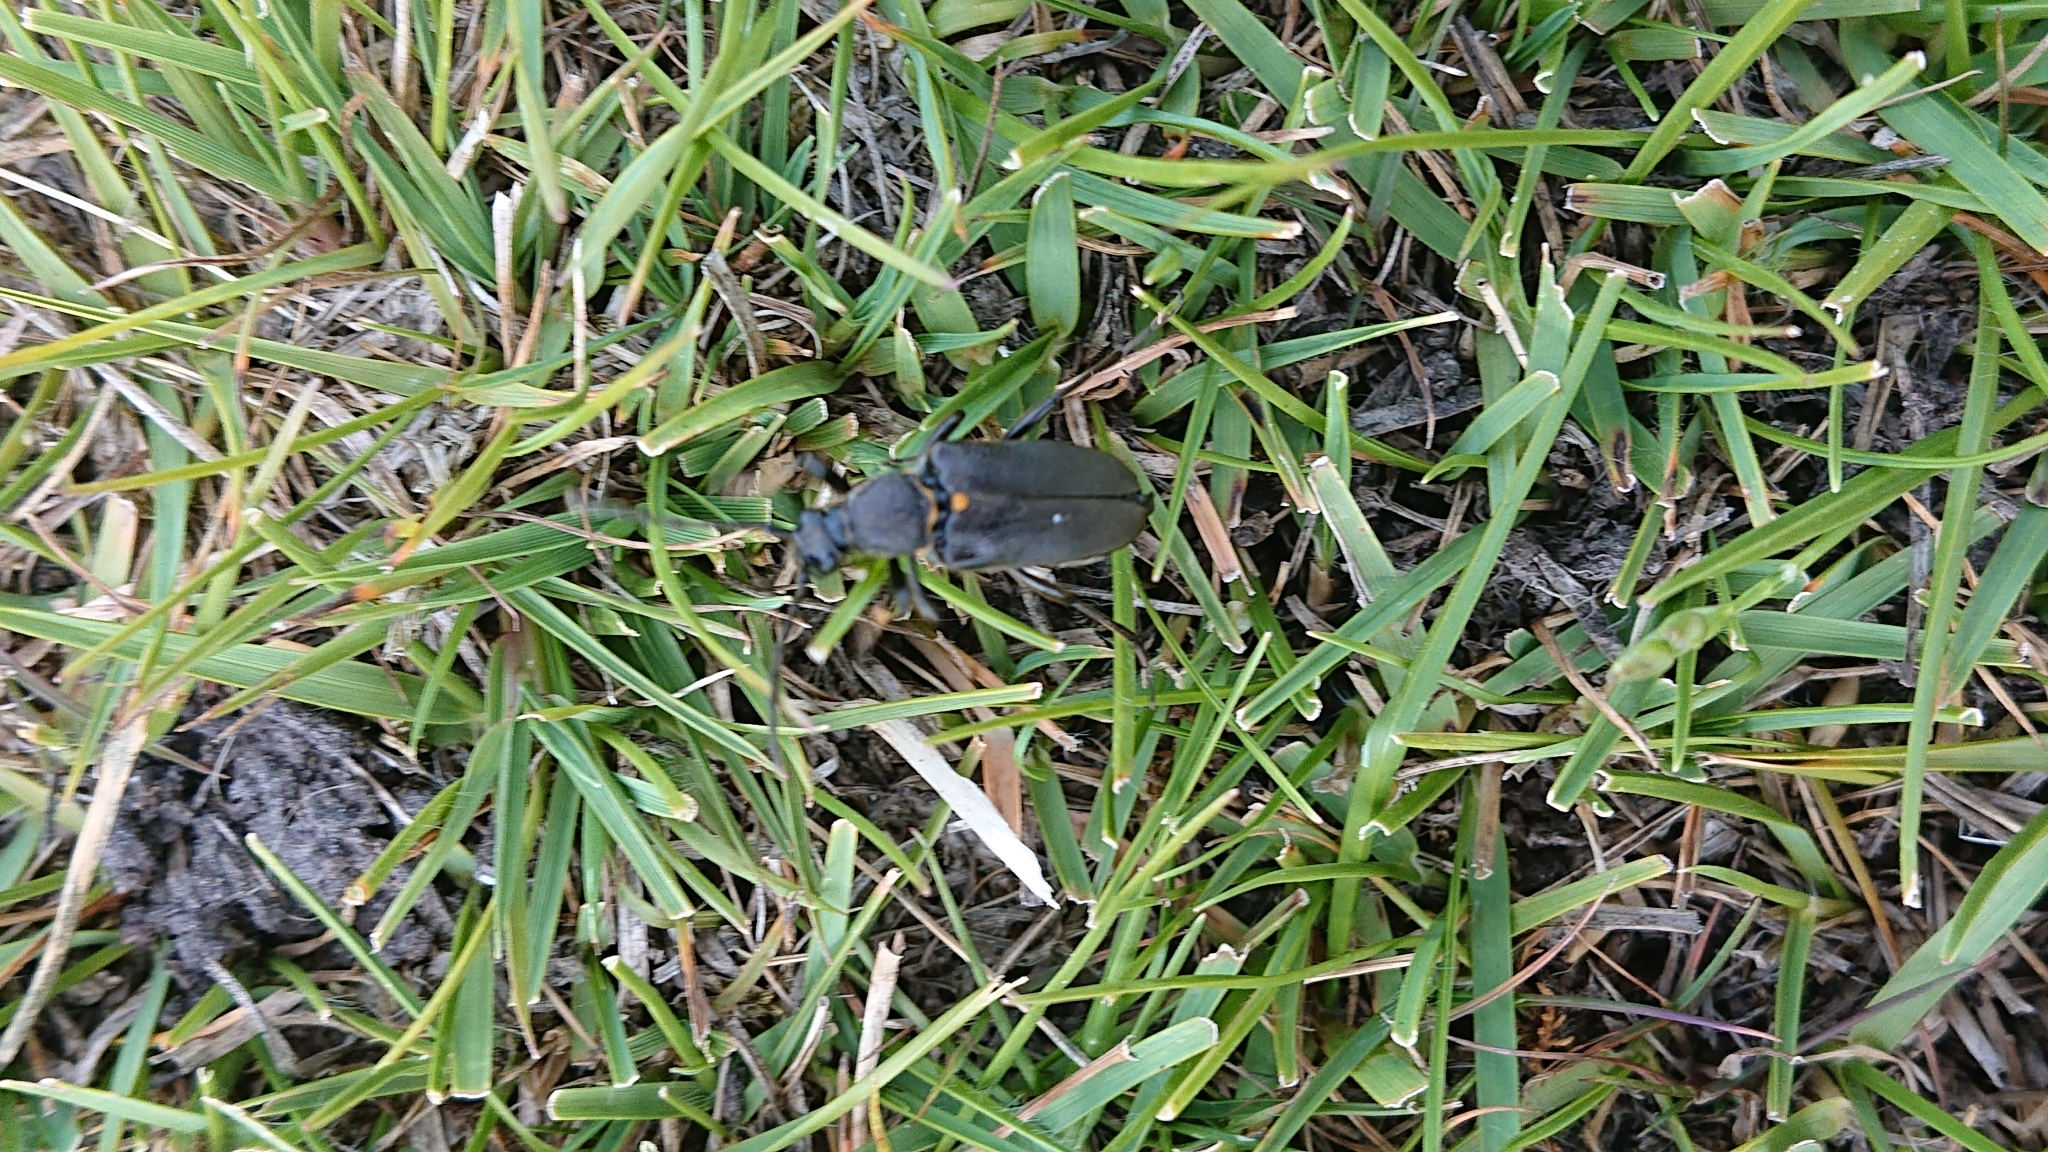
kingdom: Animalia
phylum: Arthropoda
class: Insecta
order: Coleoptera
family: Cerambycidae
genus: Stictoleptura
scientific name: Stictoleptura scutellata
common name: Large black longhorn beetle
